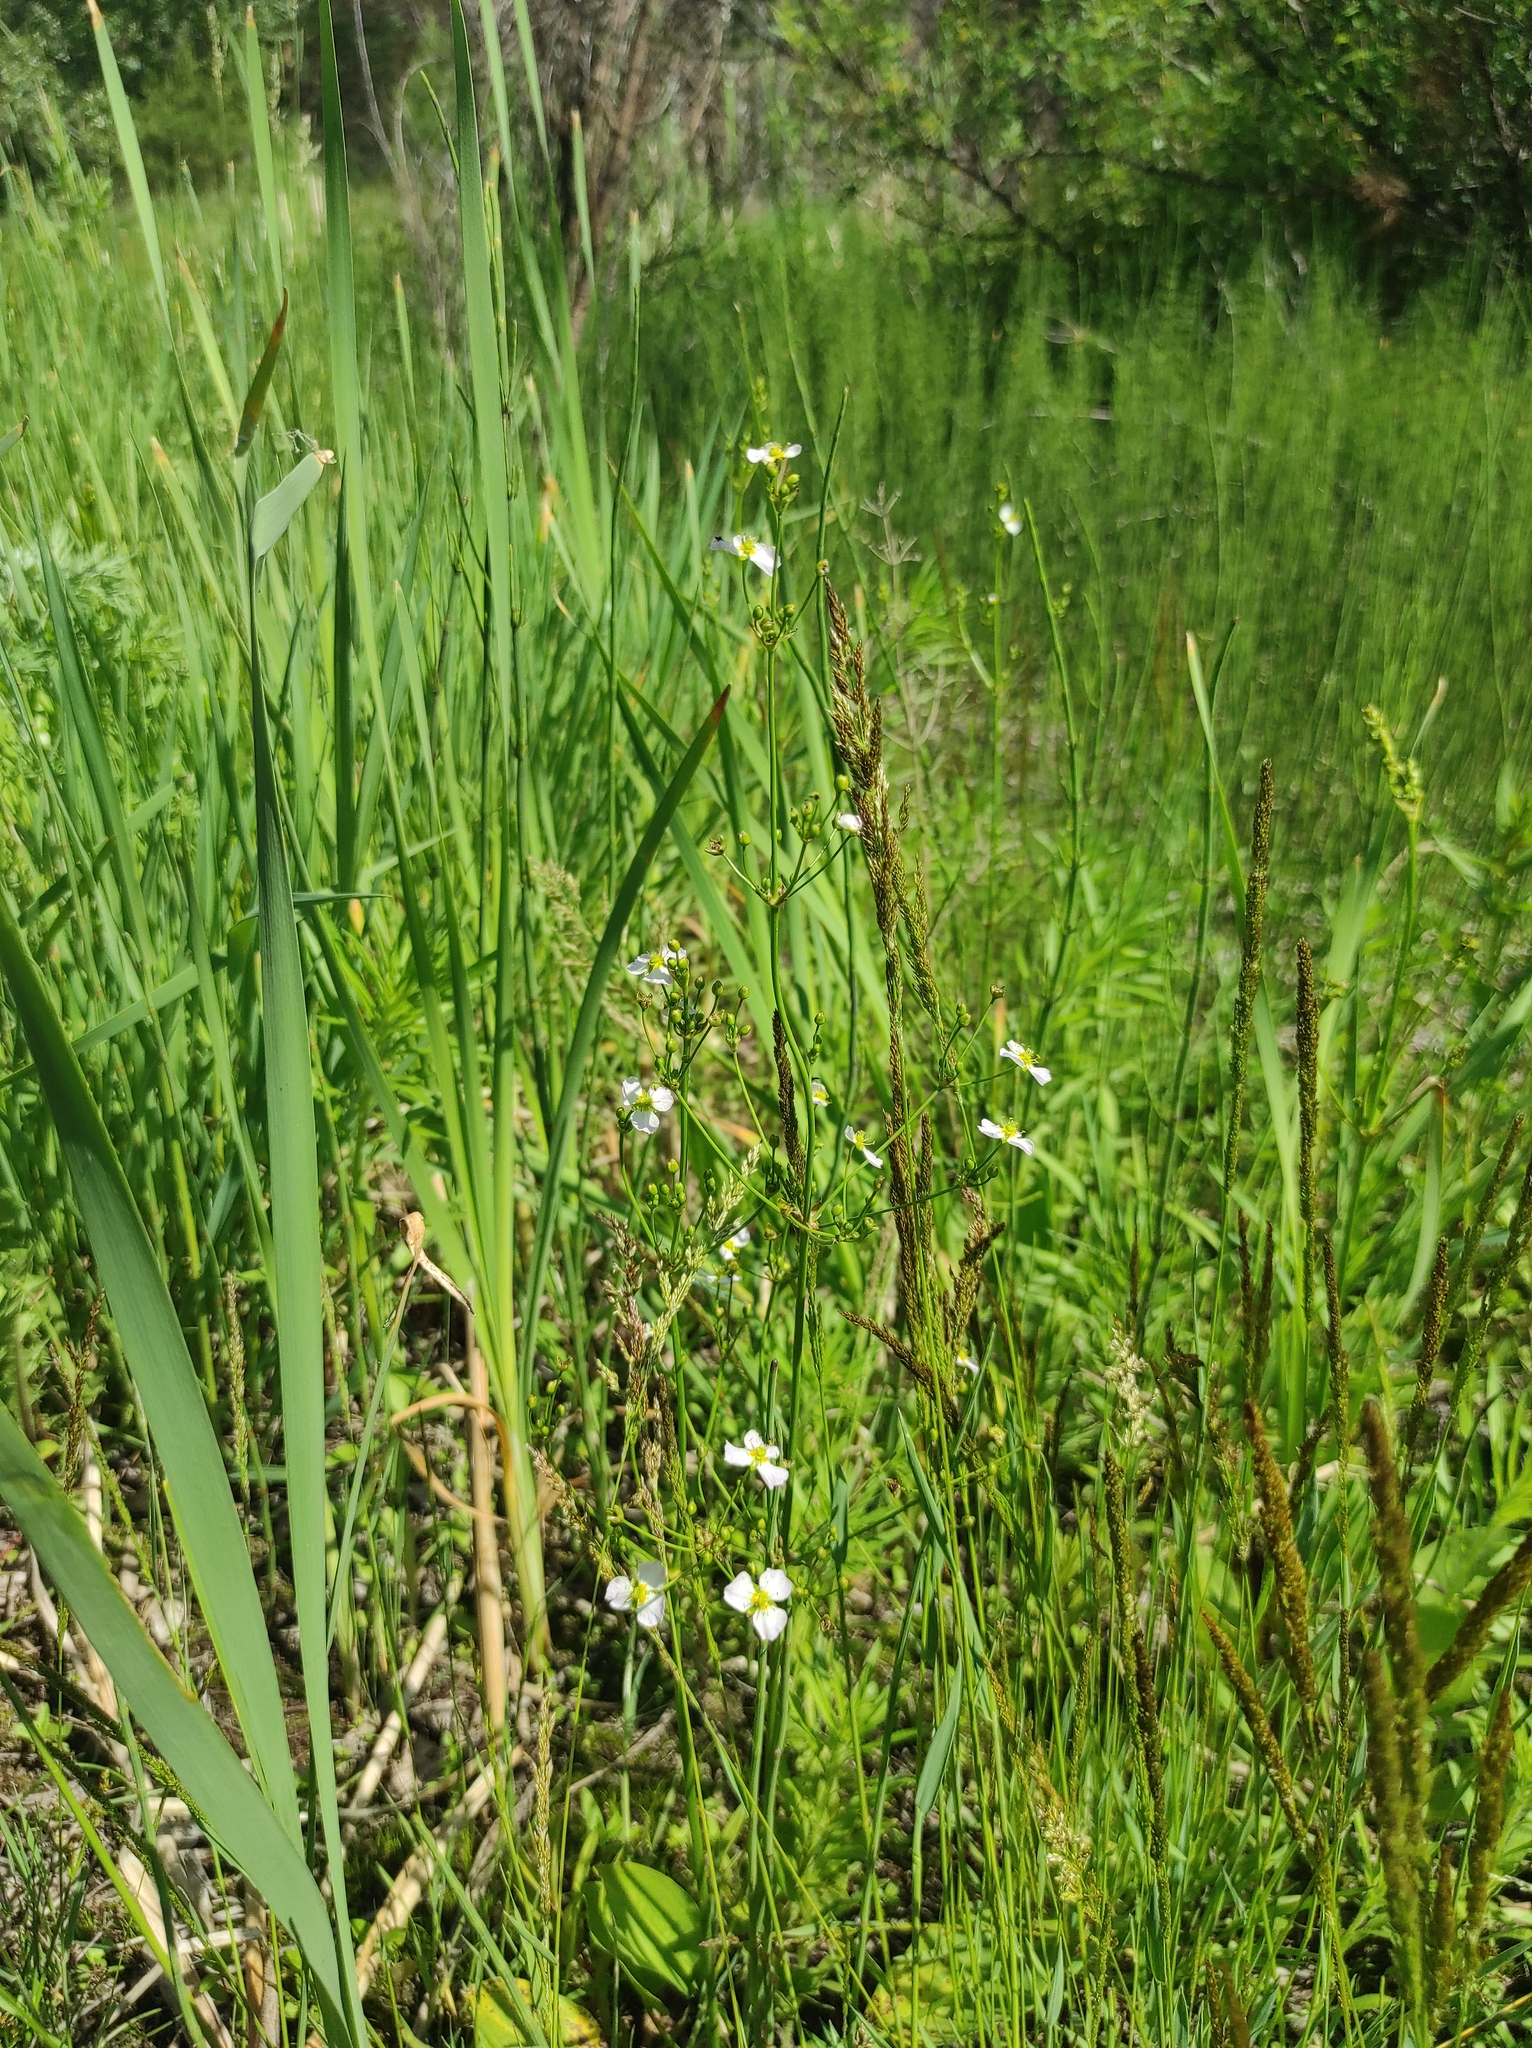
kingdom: Plantae
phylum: Tracheophyta
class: Liliopsida
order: Alismatales
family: Alismataceae
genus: Alisma
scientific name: Alisma plantago-aquatica
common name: Water-plantain
